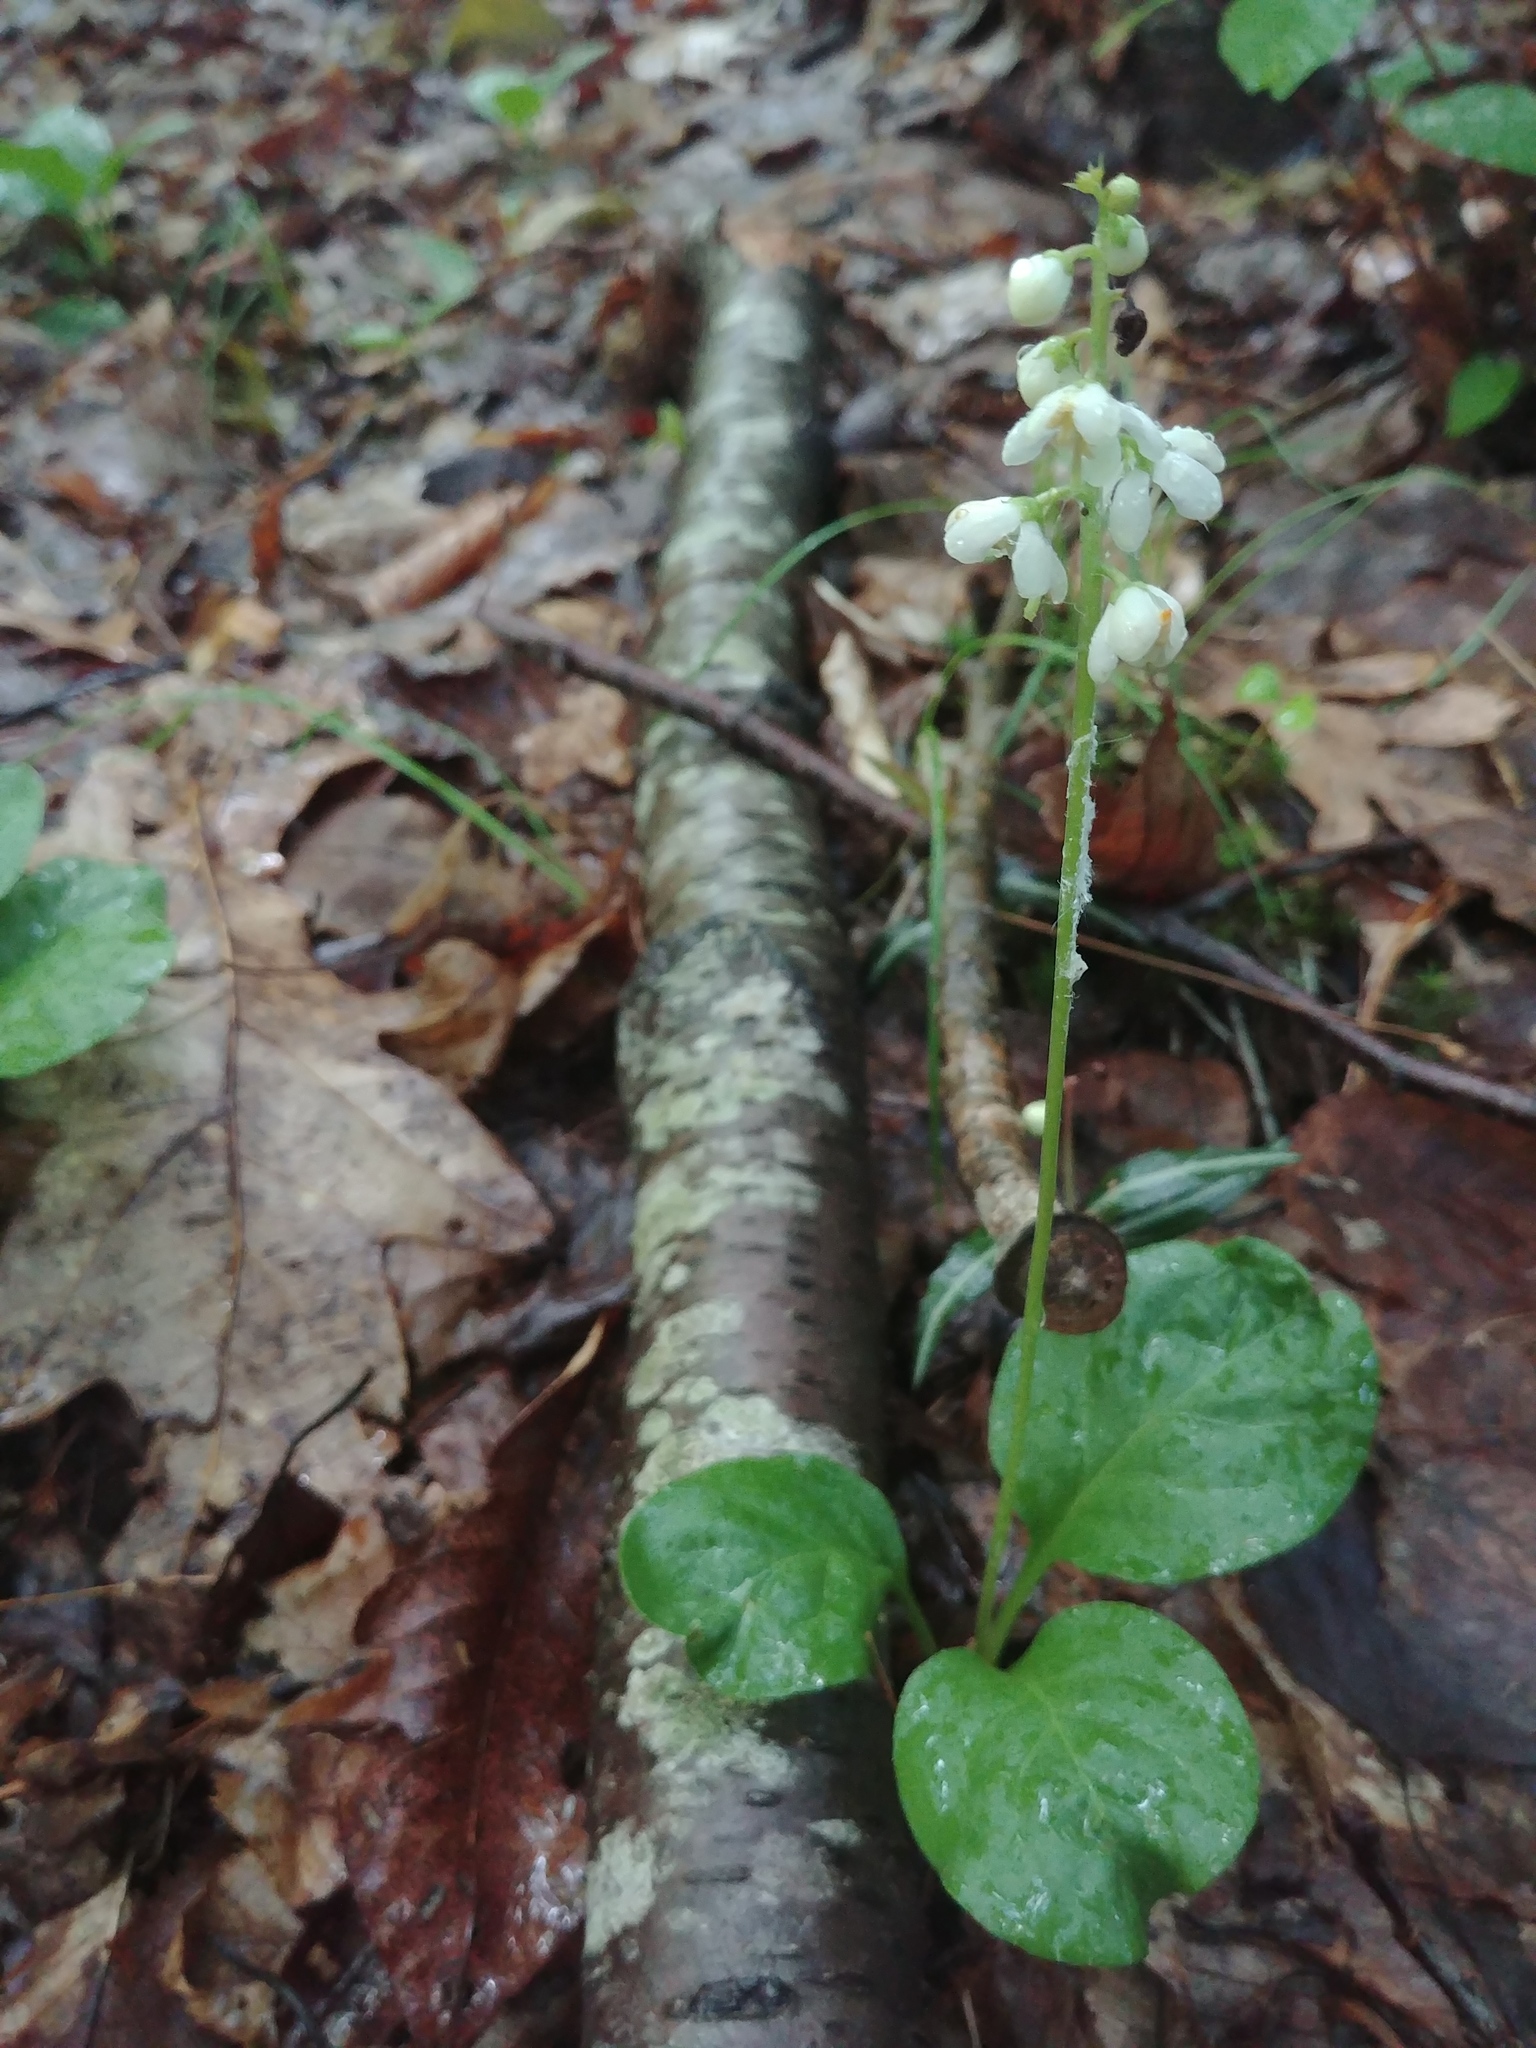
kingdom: Plantae
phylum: Tracheophyta
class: Magnoliopsida
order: Ericales
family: Ericaceae
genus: Pyrola
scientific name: Pyrola elliptica
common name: Shinleaf
